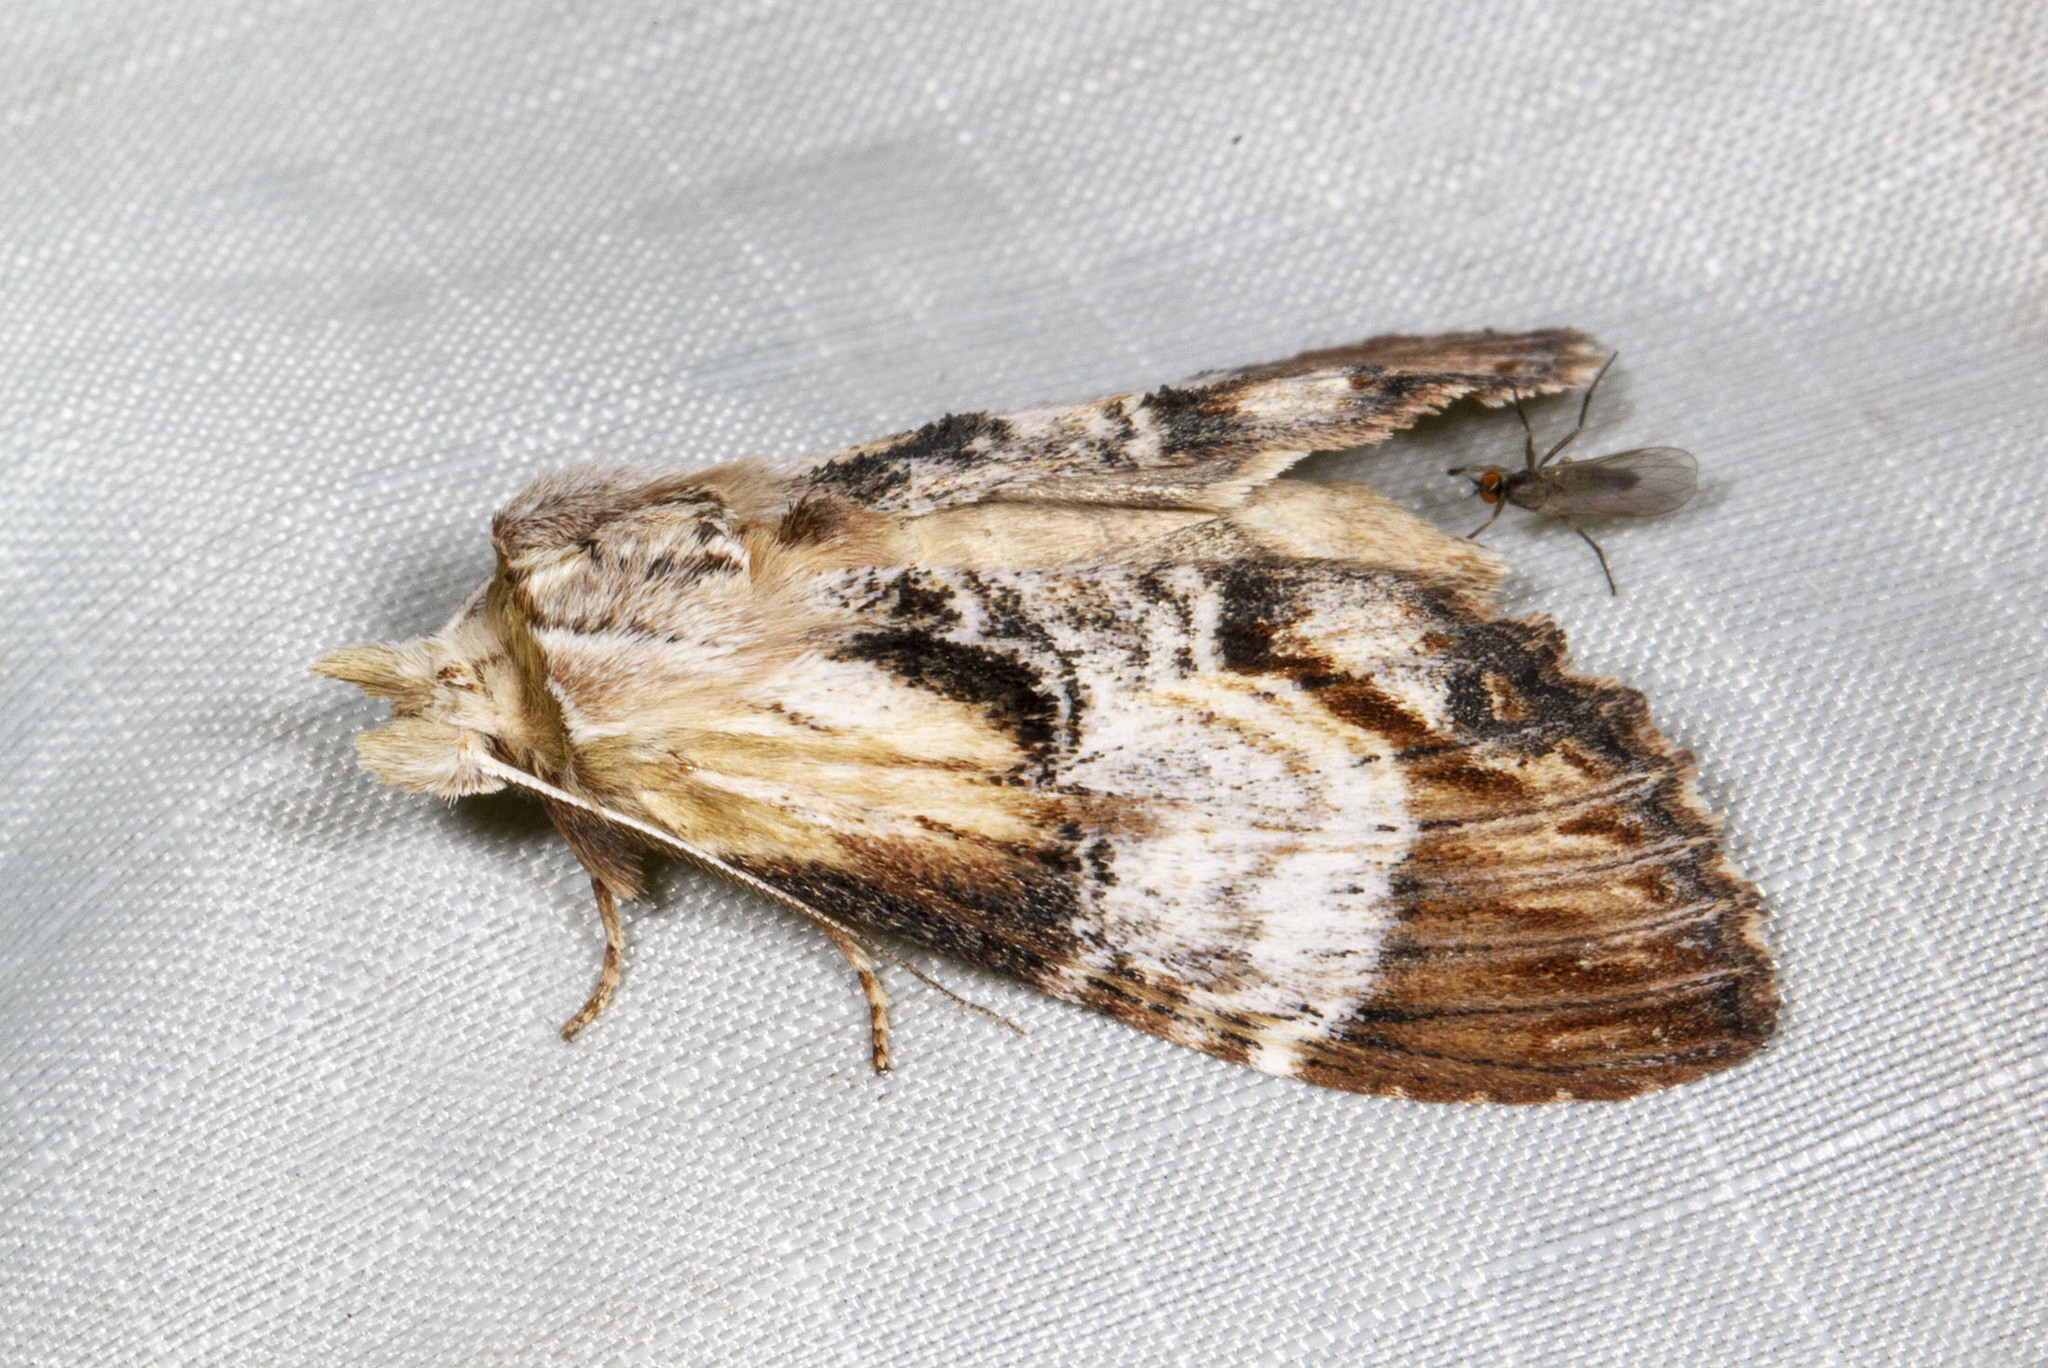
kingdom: Animalia
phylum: Arthropoda
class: Insecta
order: Lepidoptera
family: Notodontidae
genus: Dasylophia
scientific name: Dasylophia thyatiroides
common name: Gray-patched prominent
